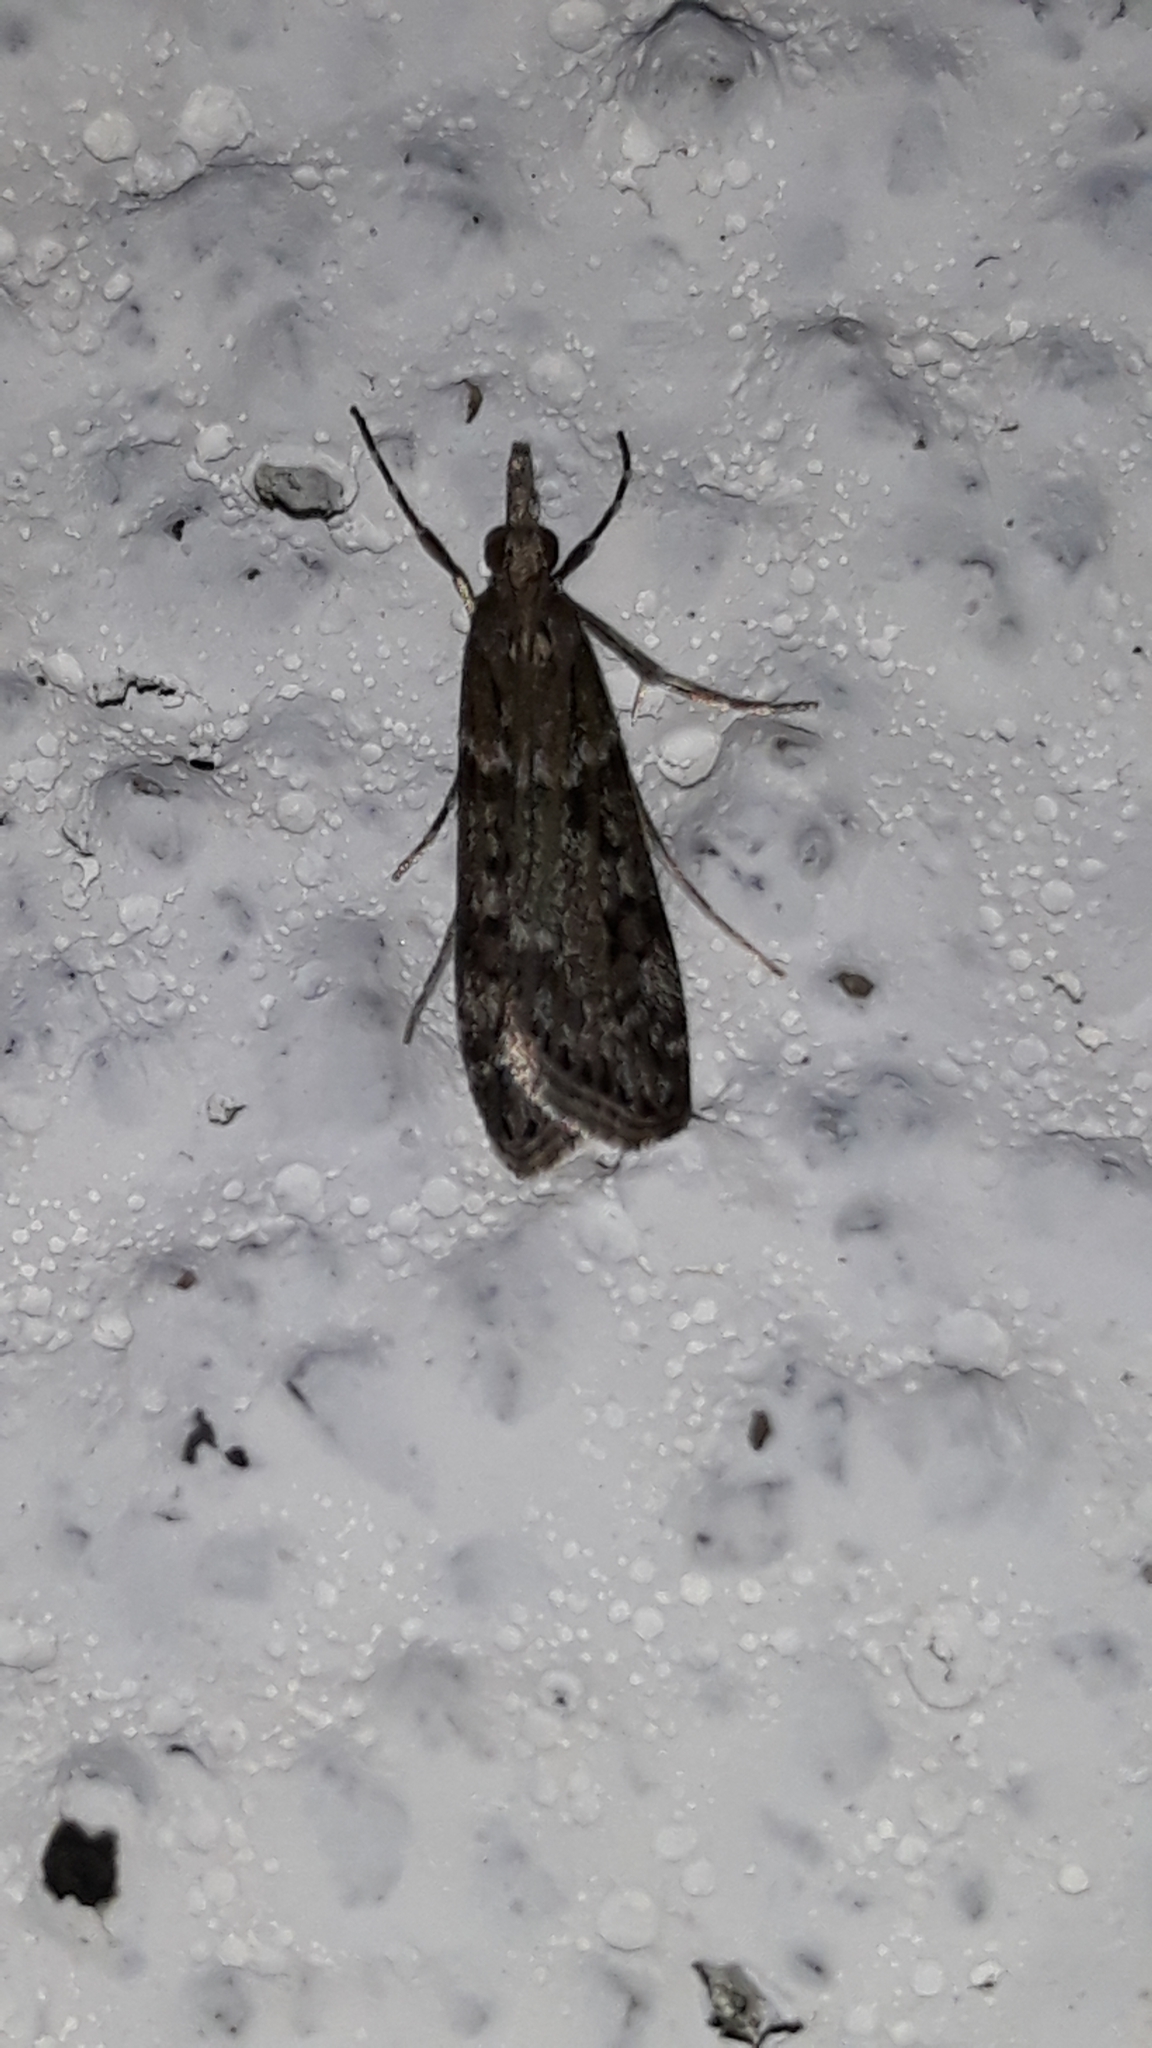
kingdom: Animalia
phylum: Arthropoda
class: Insecta
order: Lepidoptera
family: Crambidae
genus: Nomophila
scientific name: Nomophila noctuella
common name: Rush veneer
